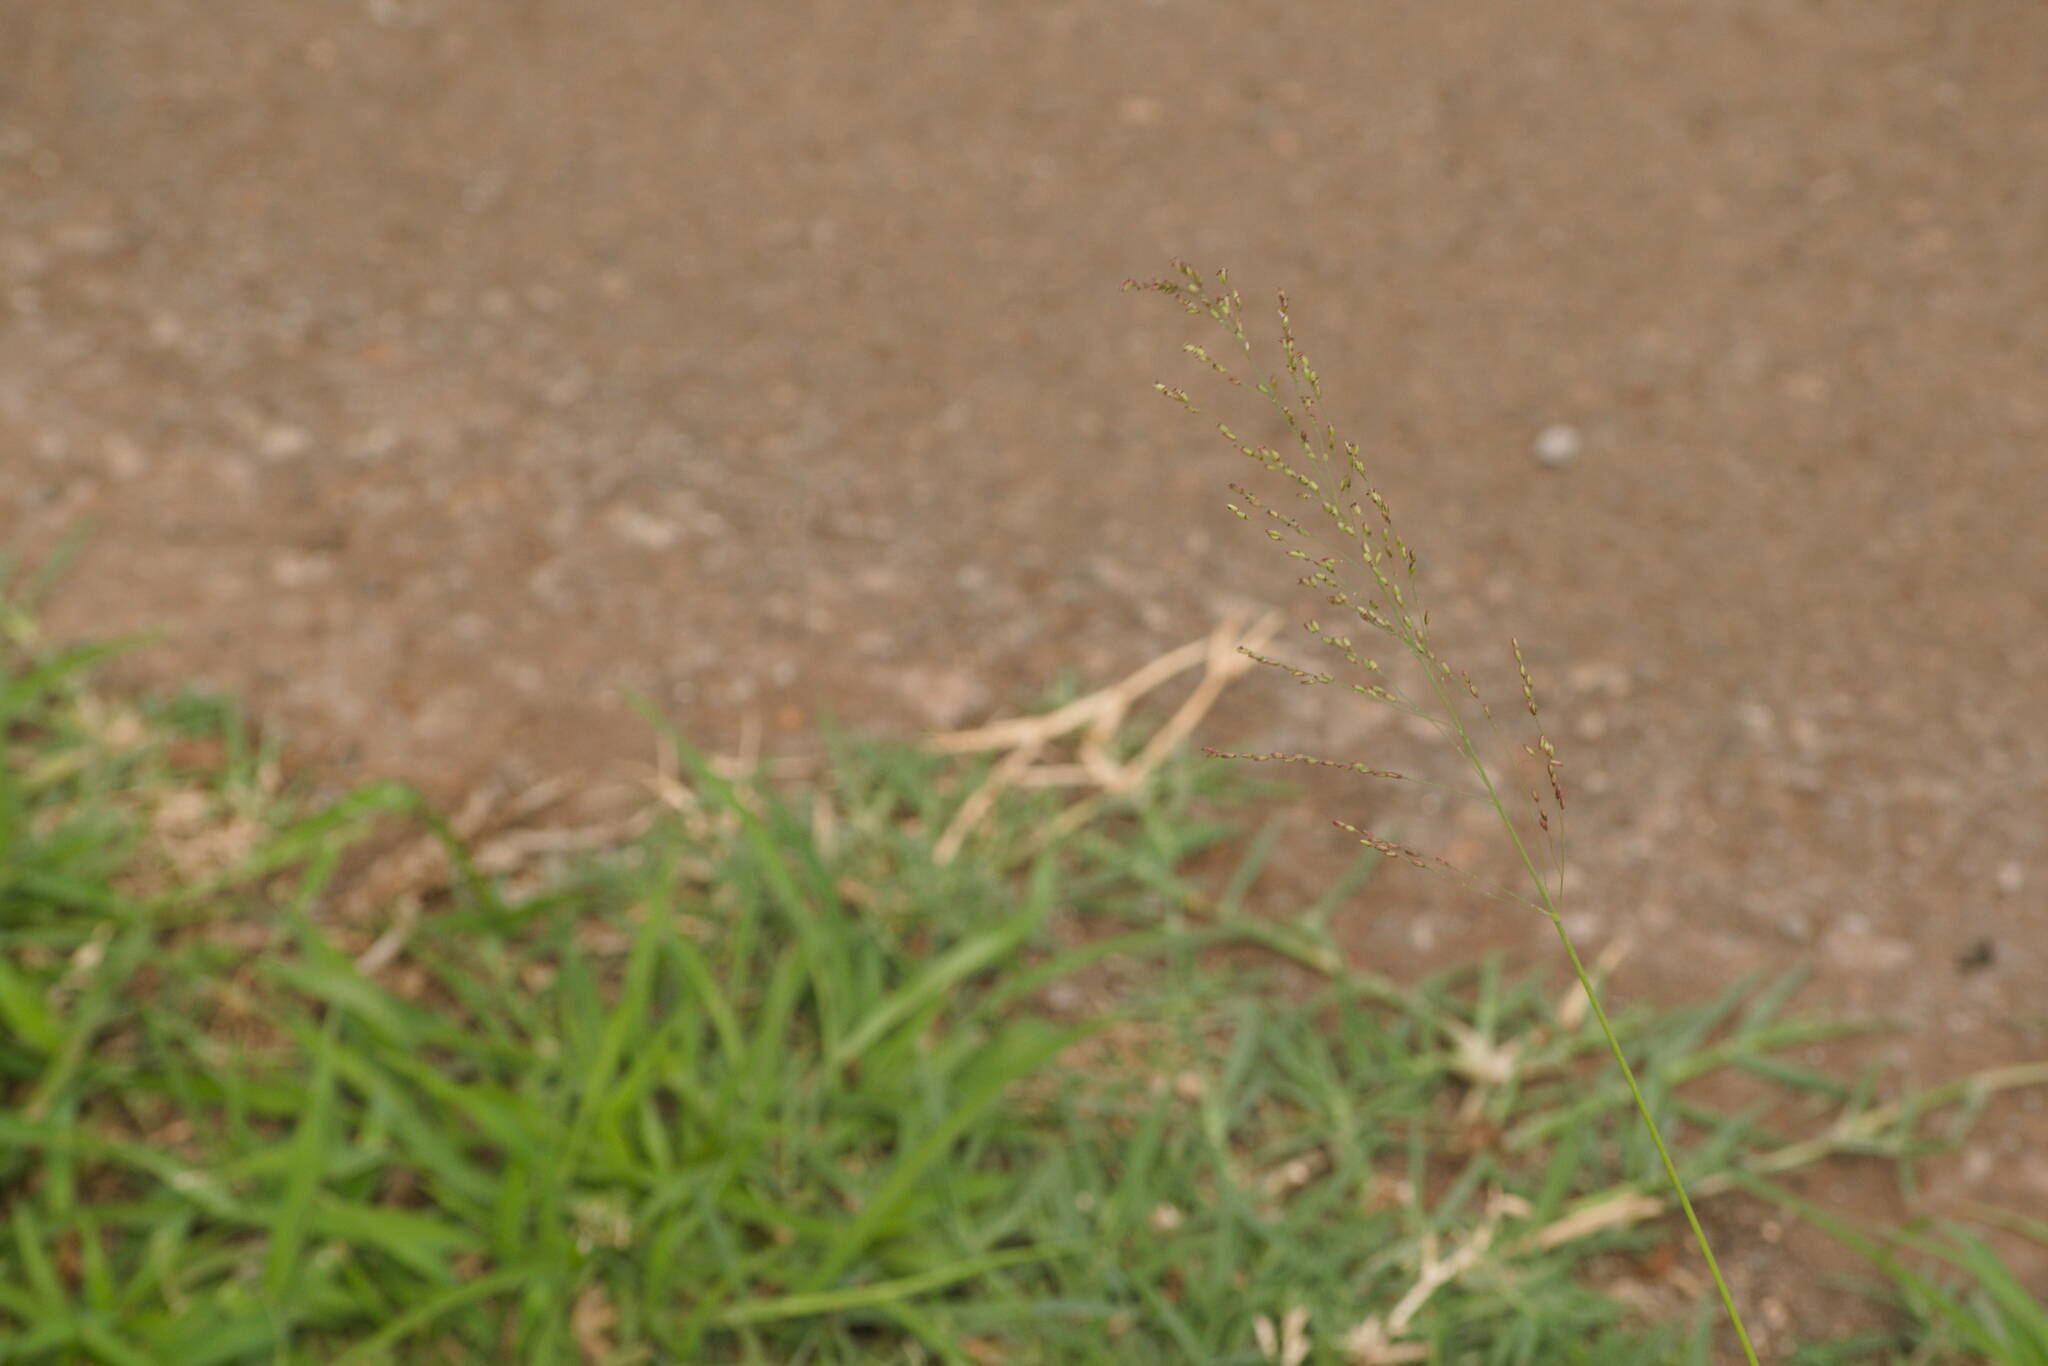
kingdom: Plantae
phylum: Tracheophyta
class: Liliopsida
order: Poales
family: Poaceae
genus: Megathyrsus
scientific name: Megathyrsus maximus
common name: Guineagrass
